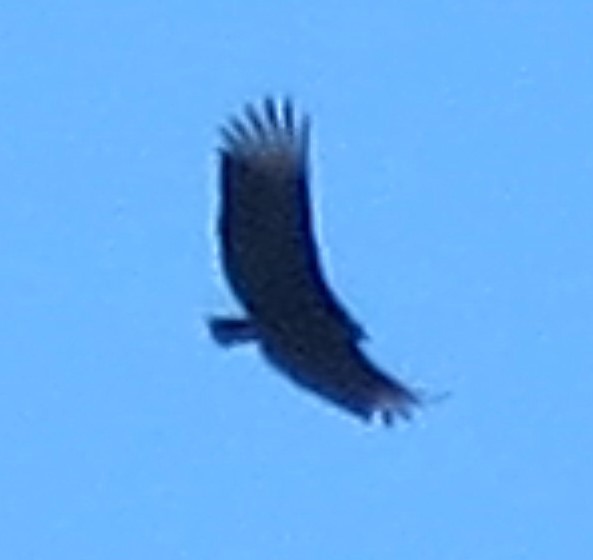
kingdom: Animalia
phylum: Chordata
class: Aves
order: Accipitriformes
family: Cathartidae
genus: Coragyps
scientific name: Coragyps atratus
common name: Black vulture
